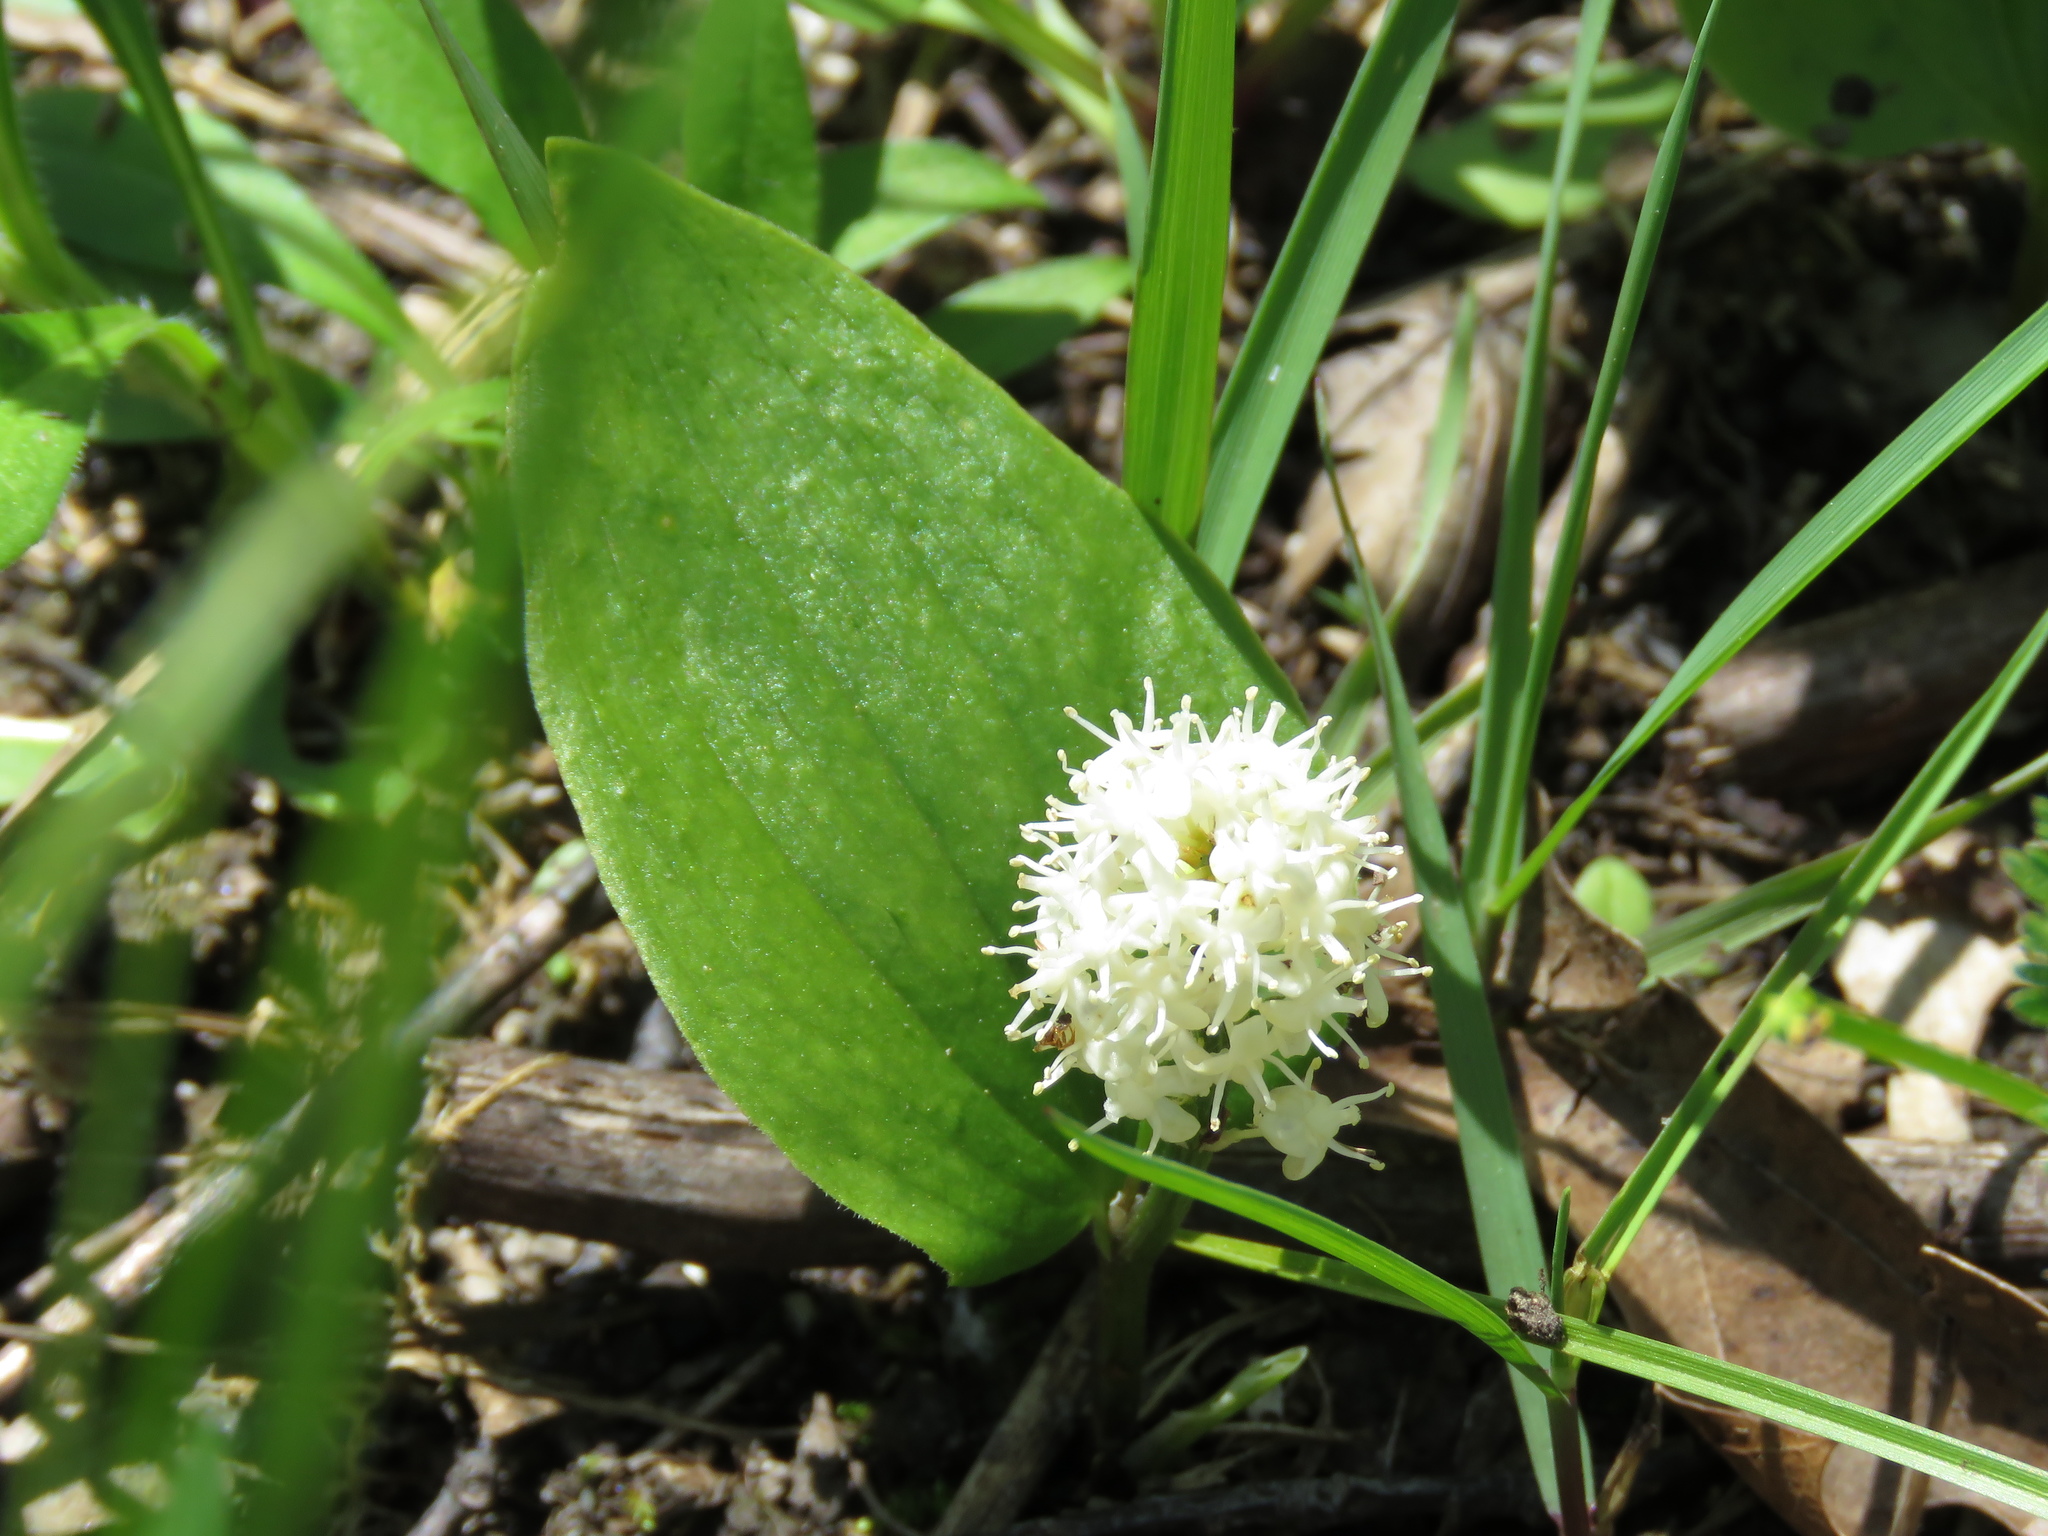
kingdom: Plantae
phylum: Tracheophyta
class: Liliopsida
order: Asparagales
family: Asparagaceae
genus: Maianthemum
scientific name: Maianthemum canadense
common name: False lily-of-the-valley
